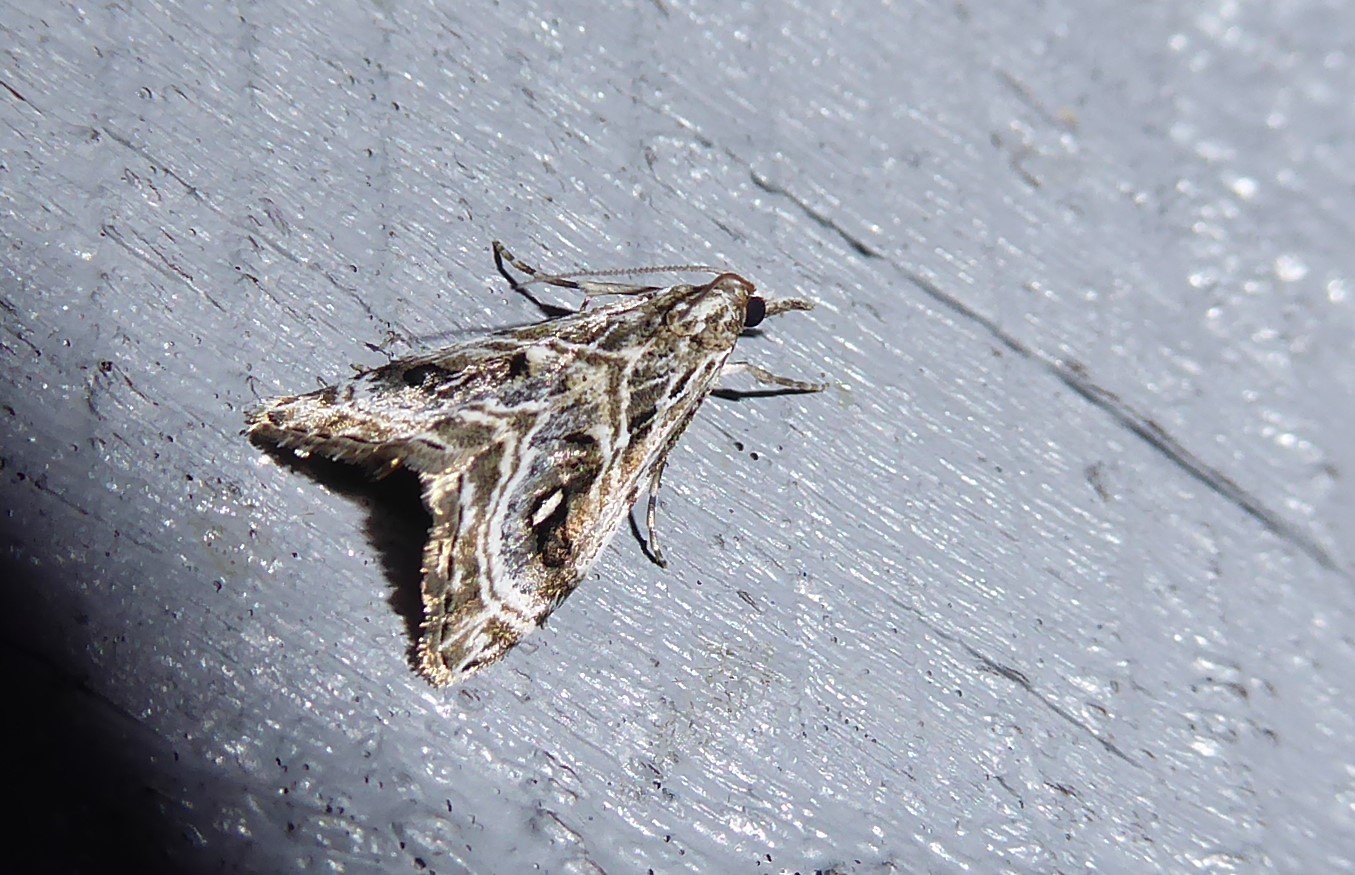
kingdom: Animalia
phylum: Arthropoda
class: Insecta
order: Lepidoptera
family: Crambidae
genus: Gadira
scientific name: Gadira acerella
